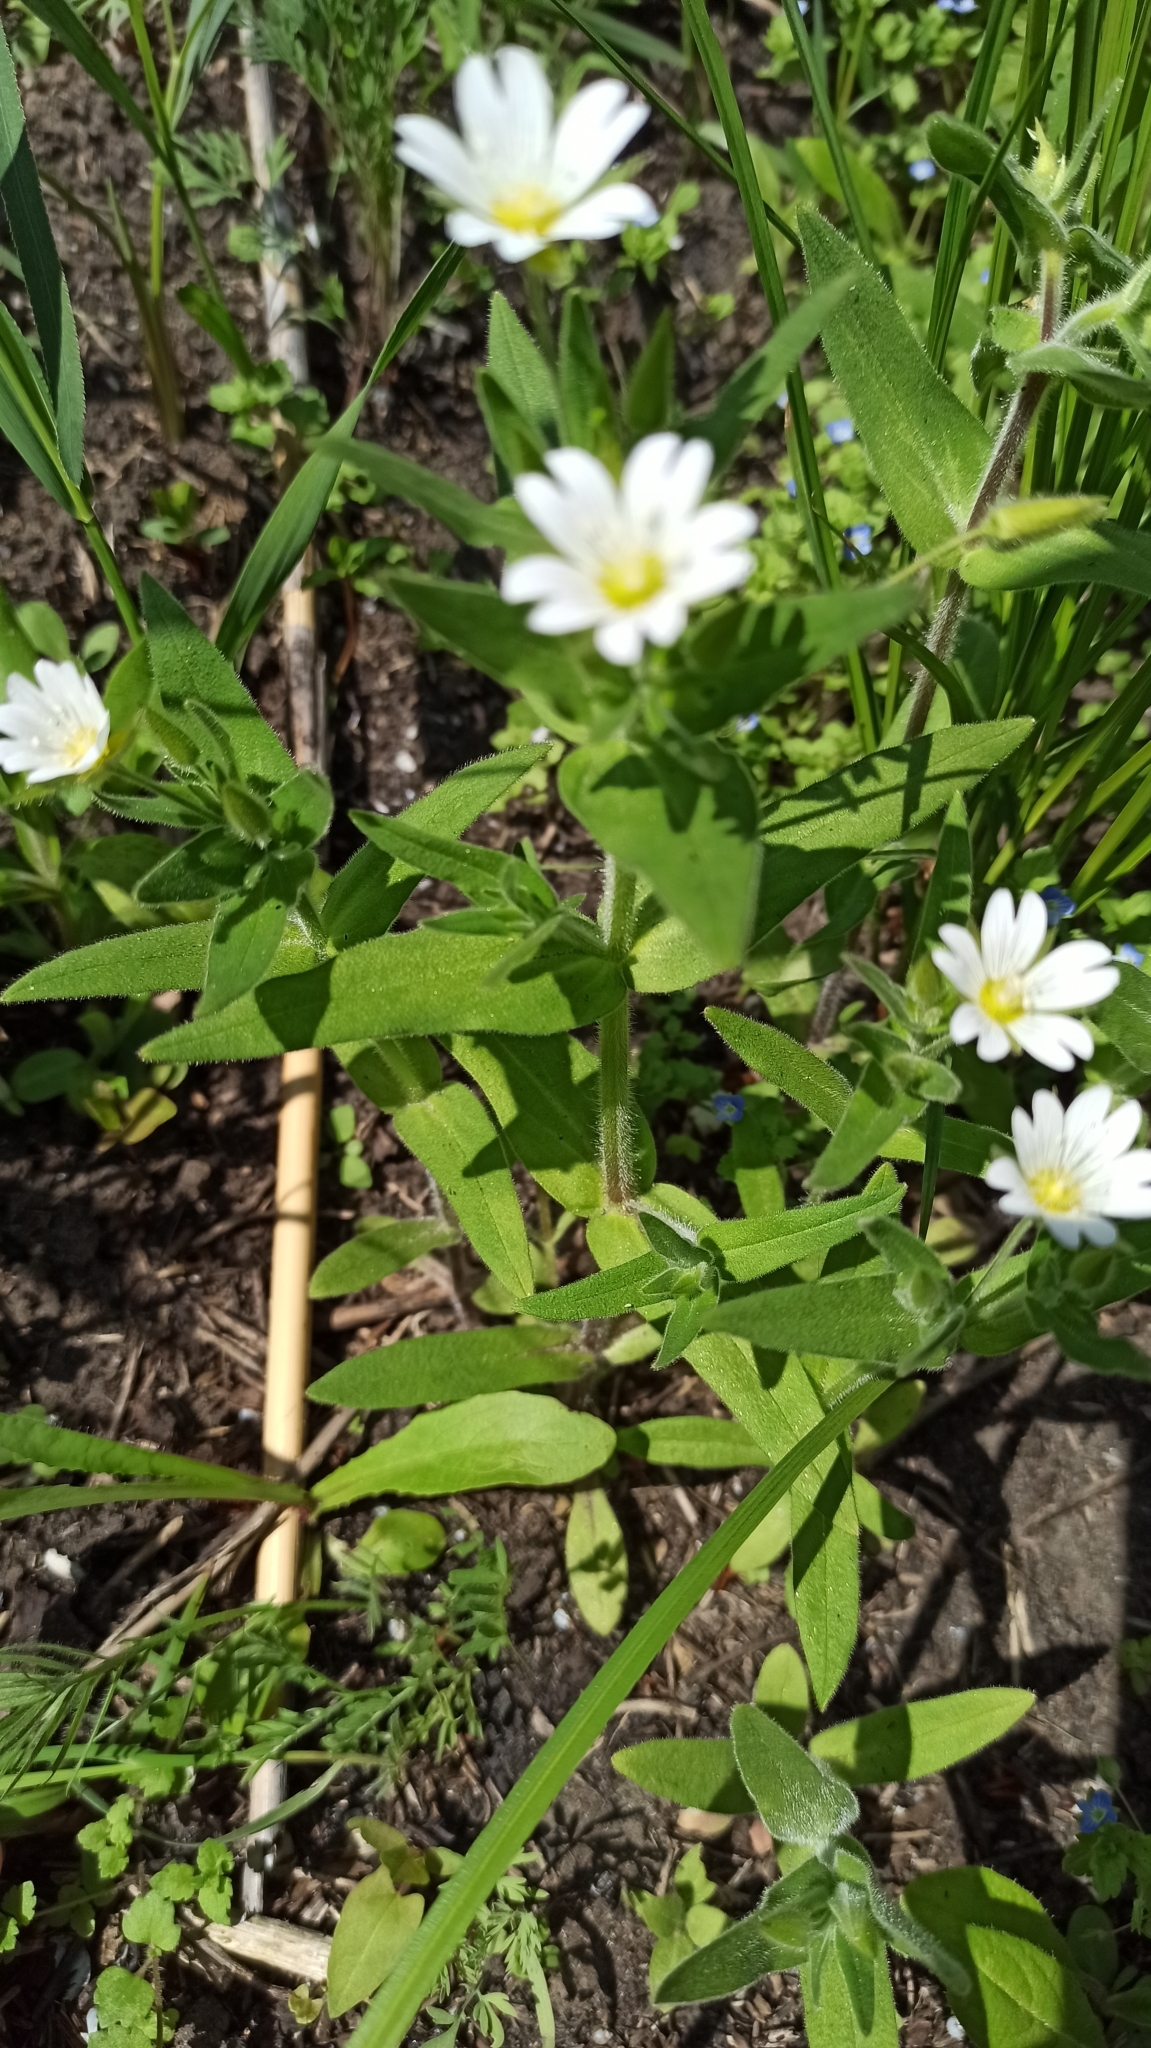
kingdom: Plantae
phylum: Tracheophyta
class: Magnoliopsida
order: Caryophyllales
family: Caryophyllaceae
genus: Cerastium
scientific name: Cerastium nemorale
